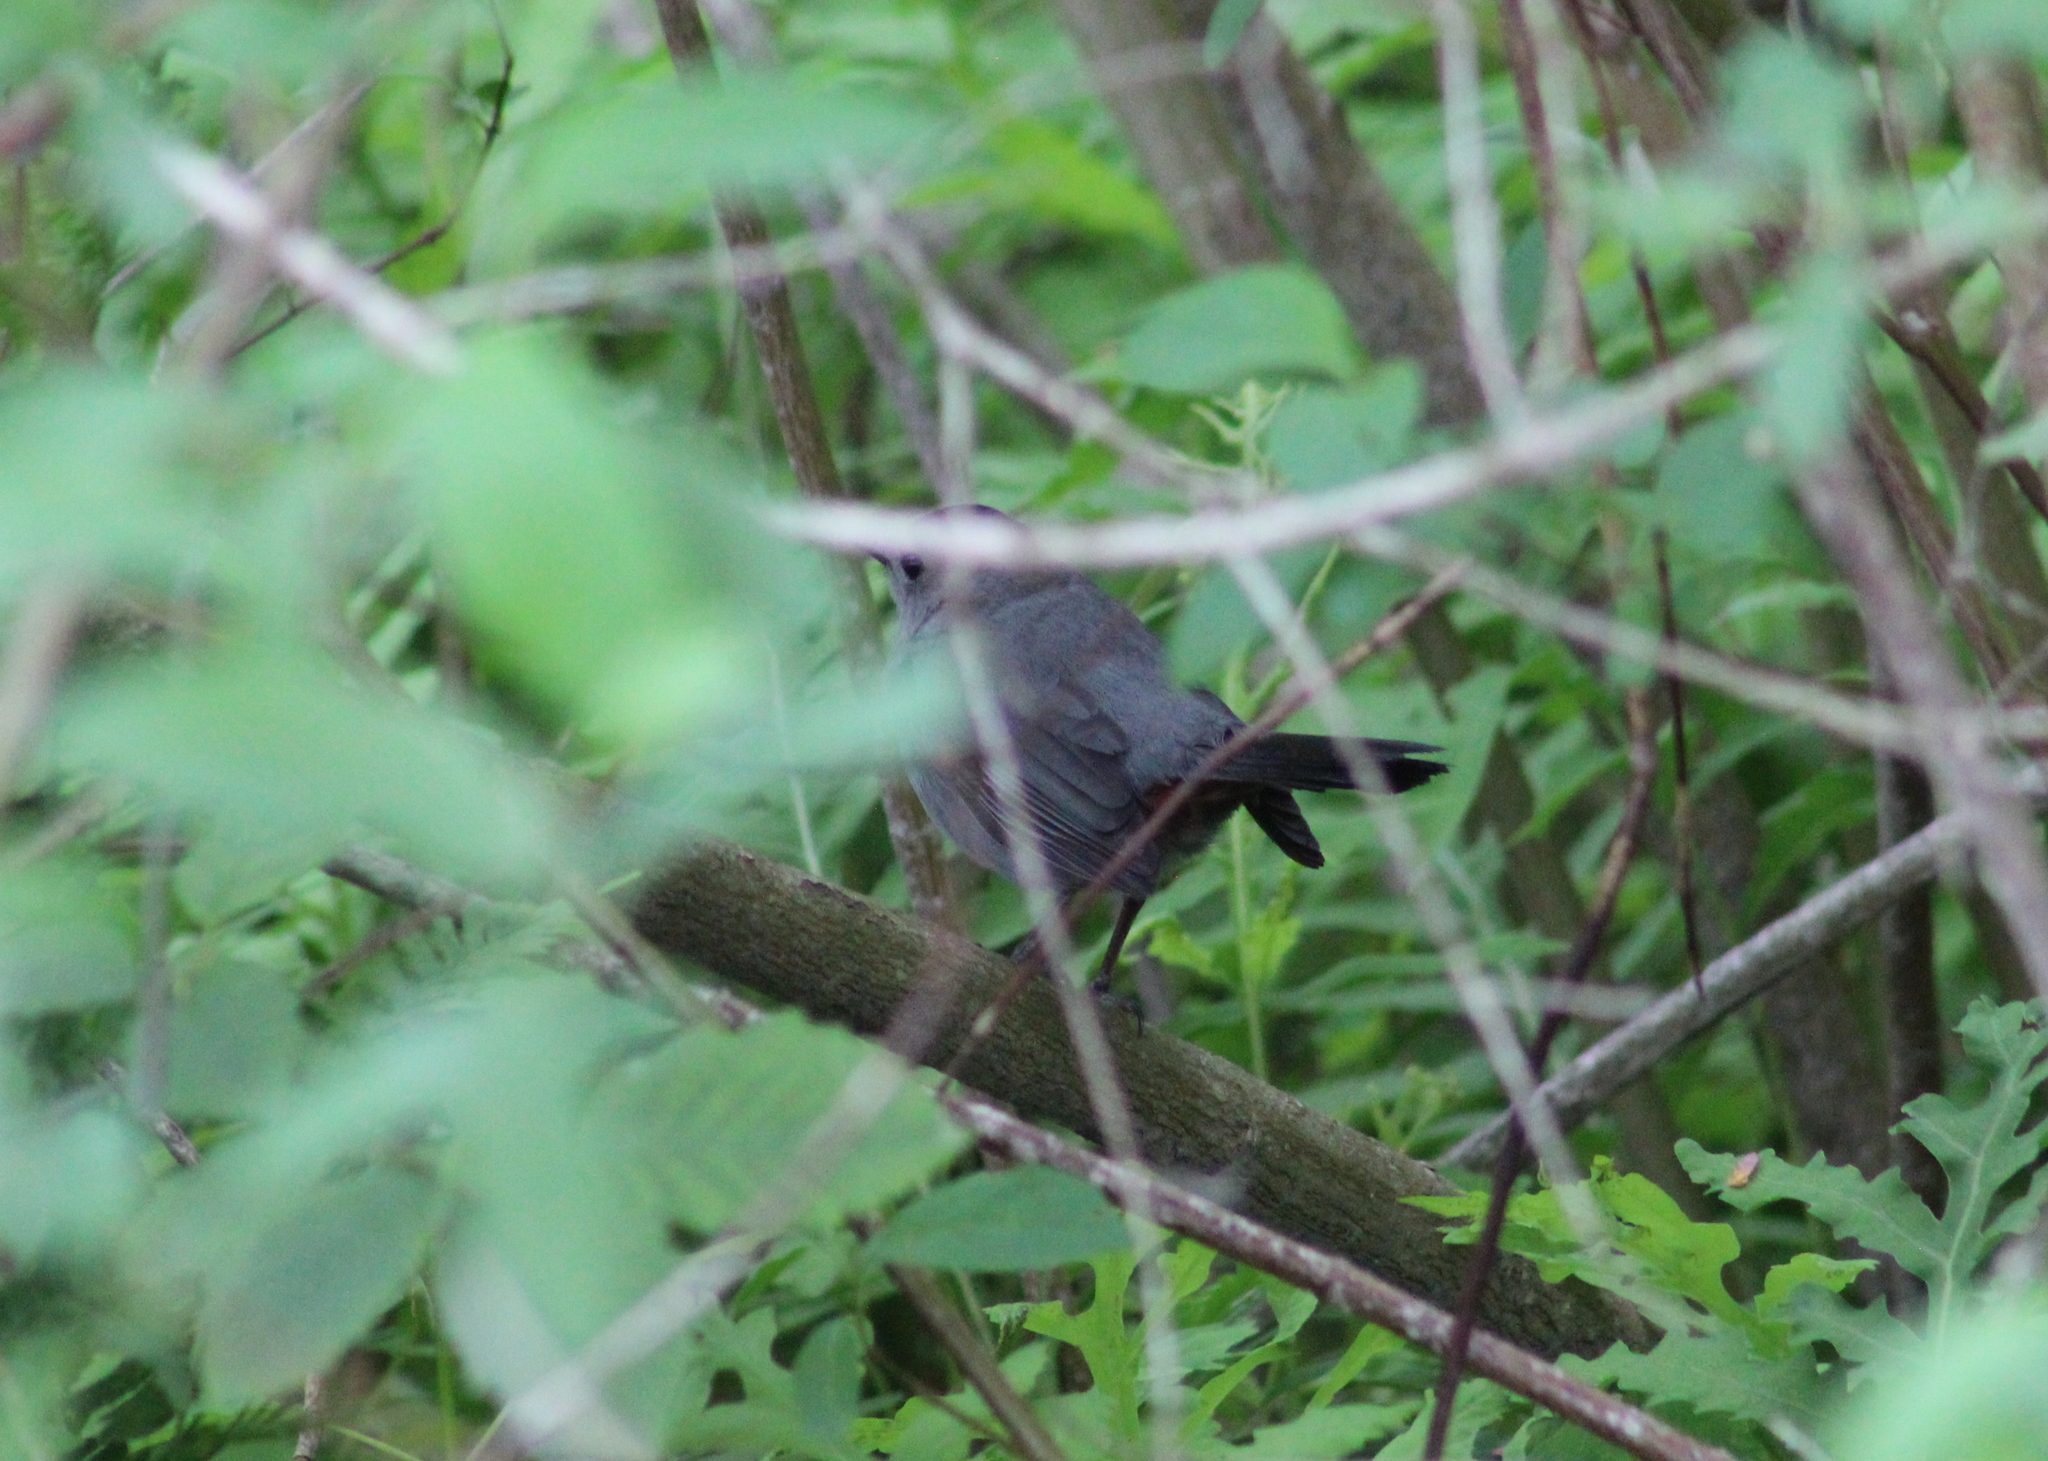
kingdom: Animalia
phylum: Chordata
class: Aves
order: Passeriformes
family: Mimidae
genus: Dumetella
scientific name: Dumetella carolinensis
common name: Gray catbird
